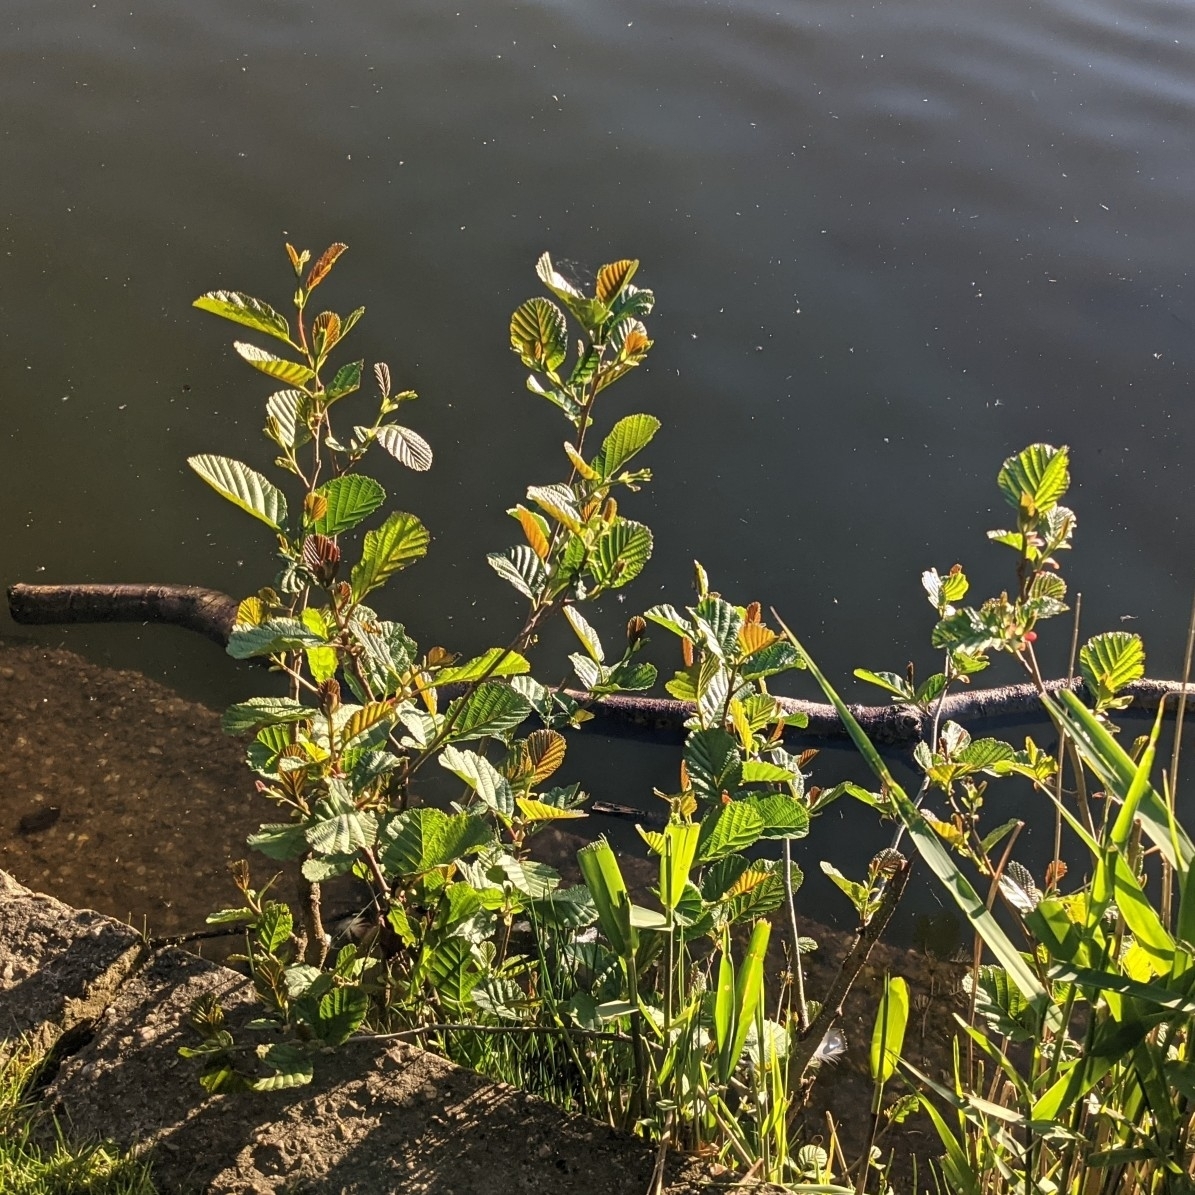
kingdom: Plantae
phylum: Tracheophyta
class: Magnoliopsida
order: Fagales
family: Betulaceae
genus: Alnus
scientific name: Alnus glutinosa
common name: Black alder
